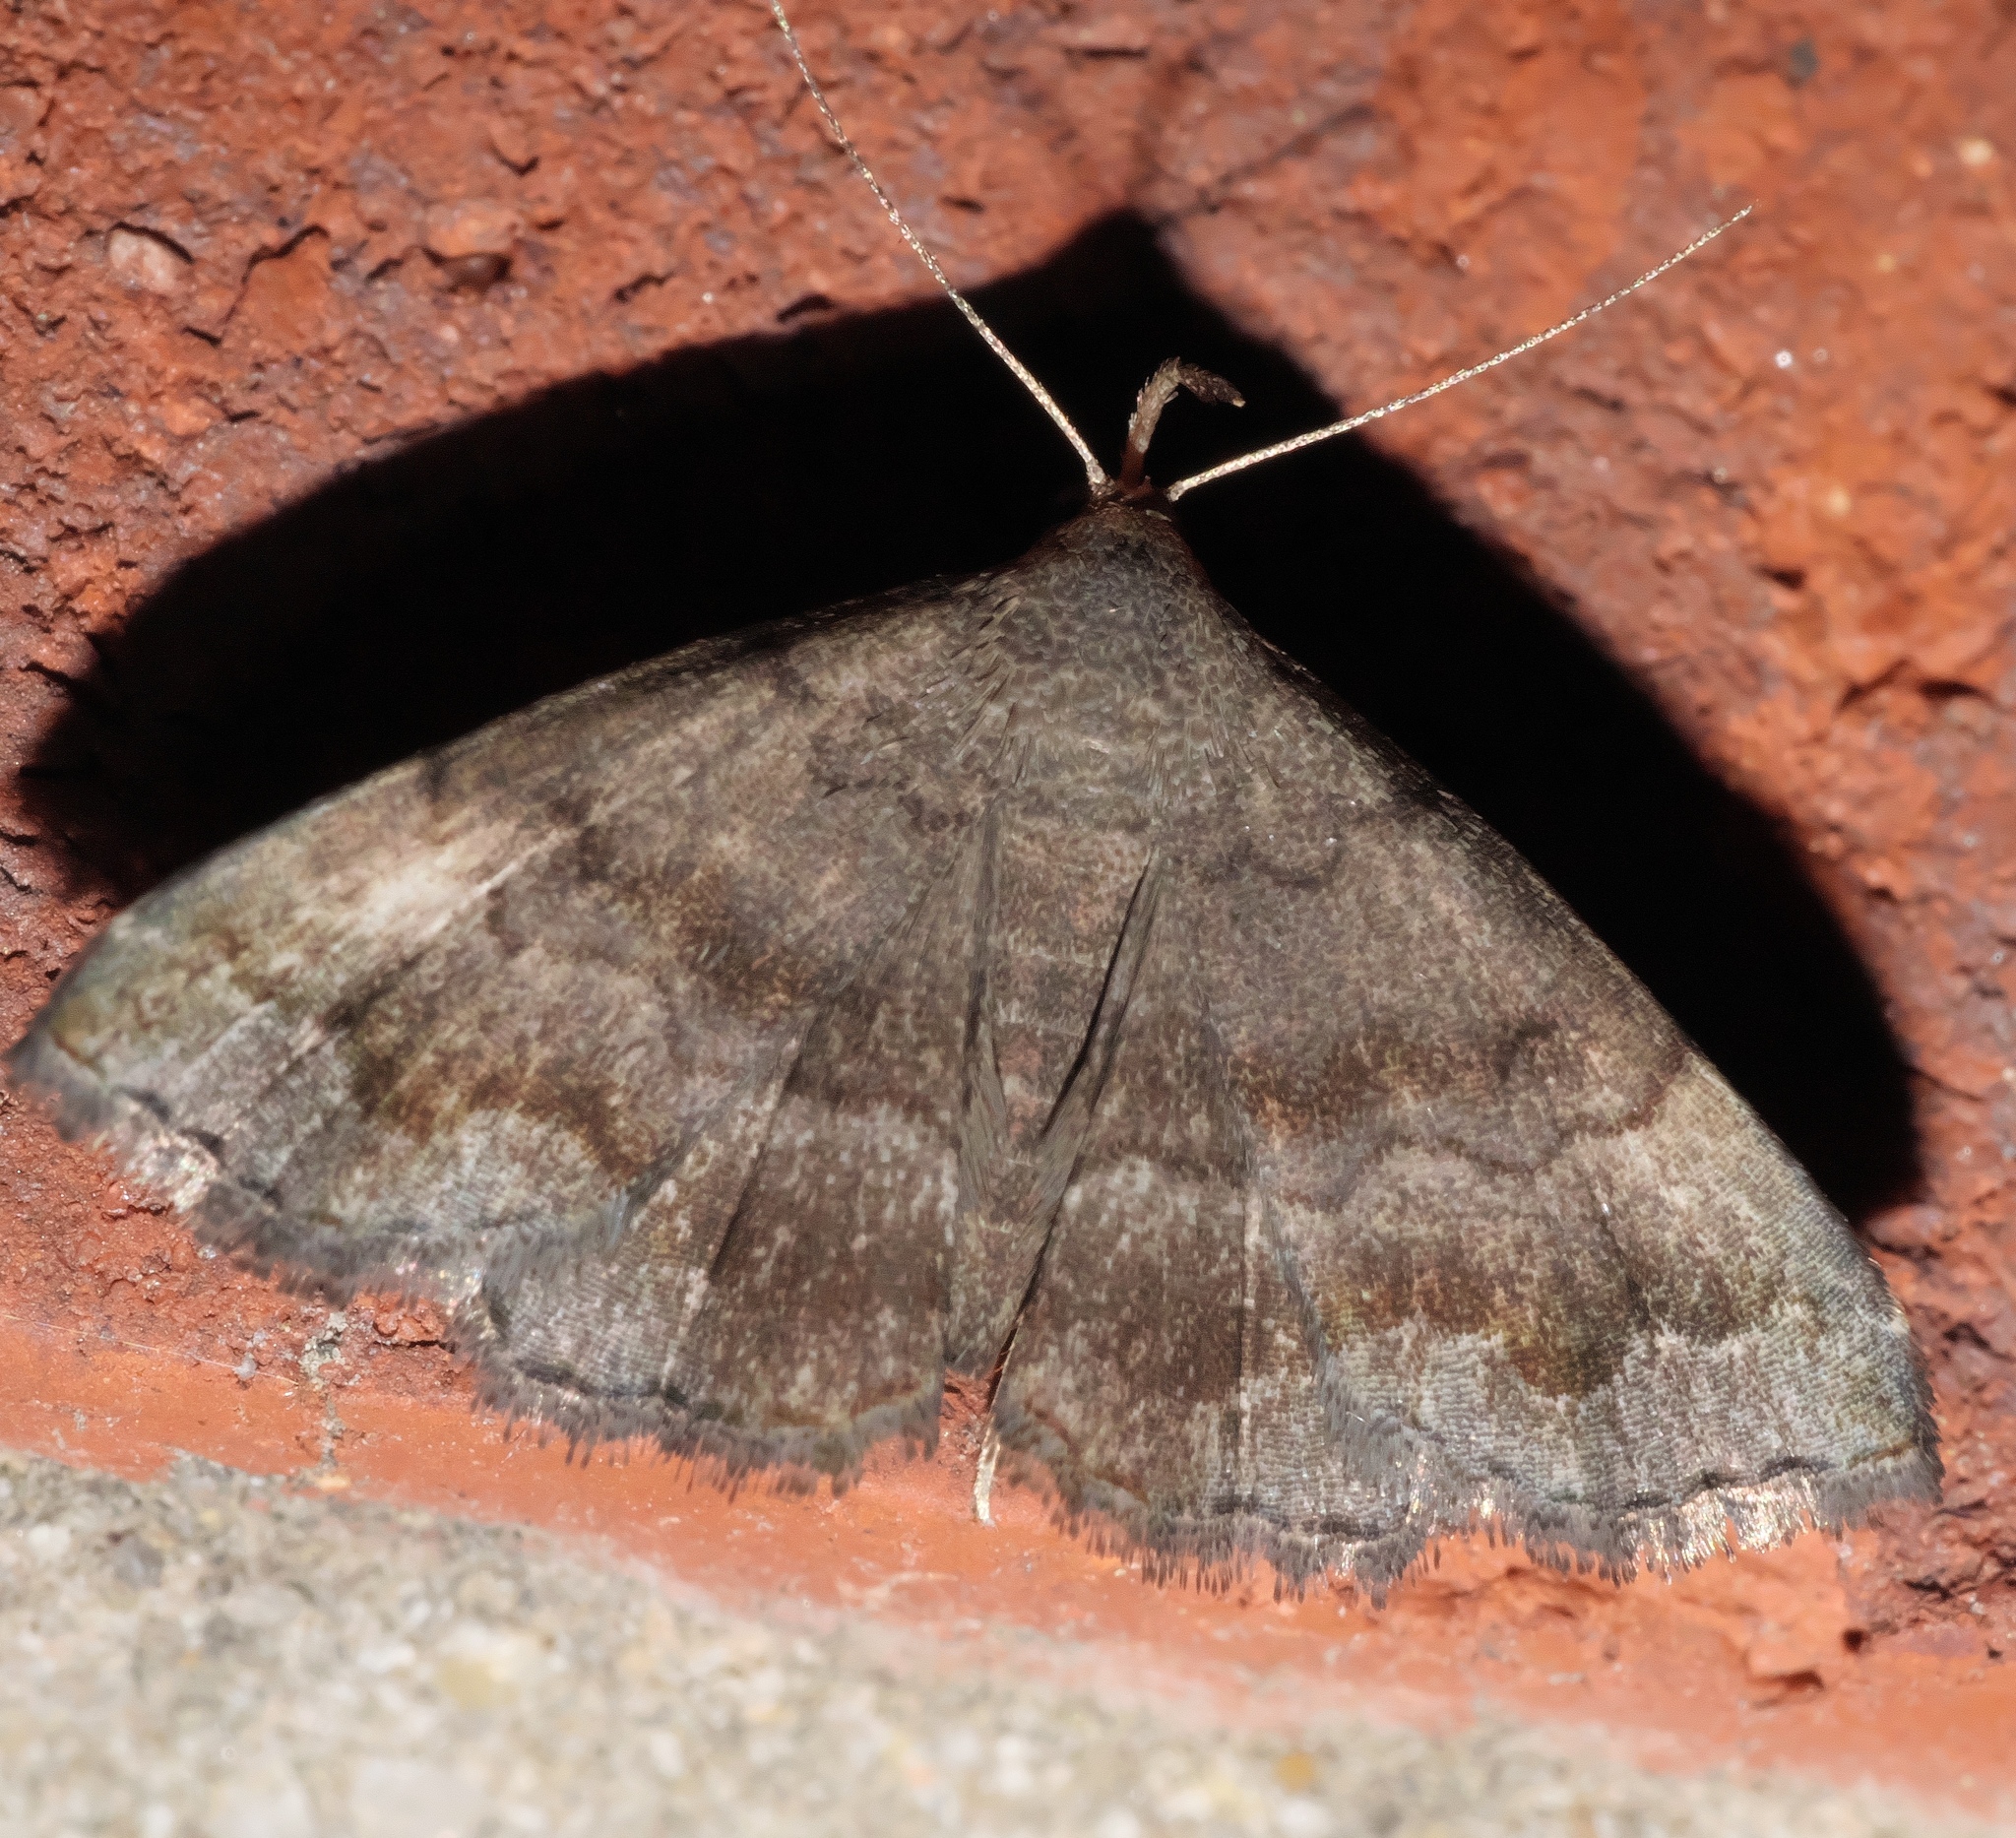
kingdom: Animalia
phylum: Arthropoda
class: Insecta
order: Lepidoptera
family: Erebidae
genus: Phalaenostola
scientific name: Phalaenostola larentioides
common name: Black-banded owlet
